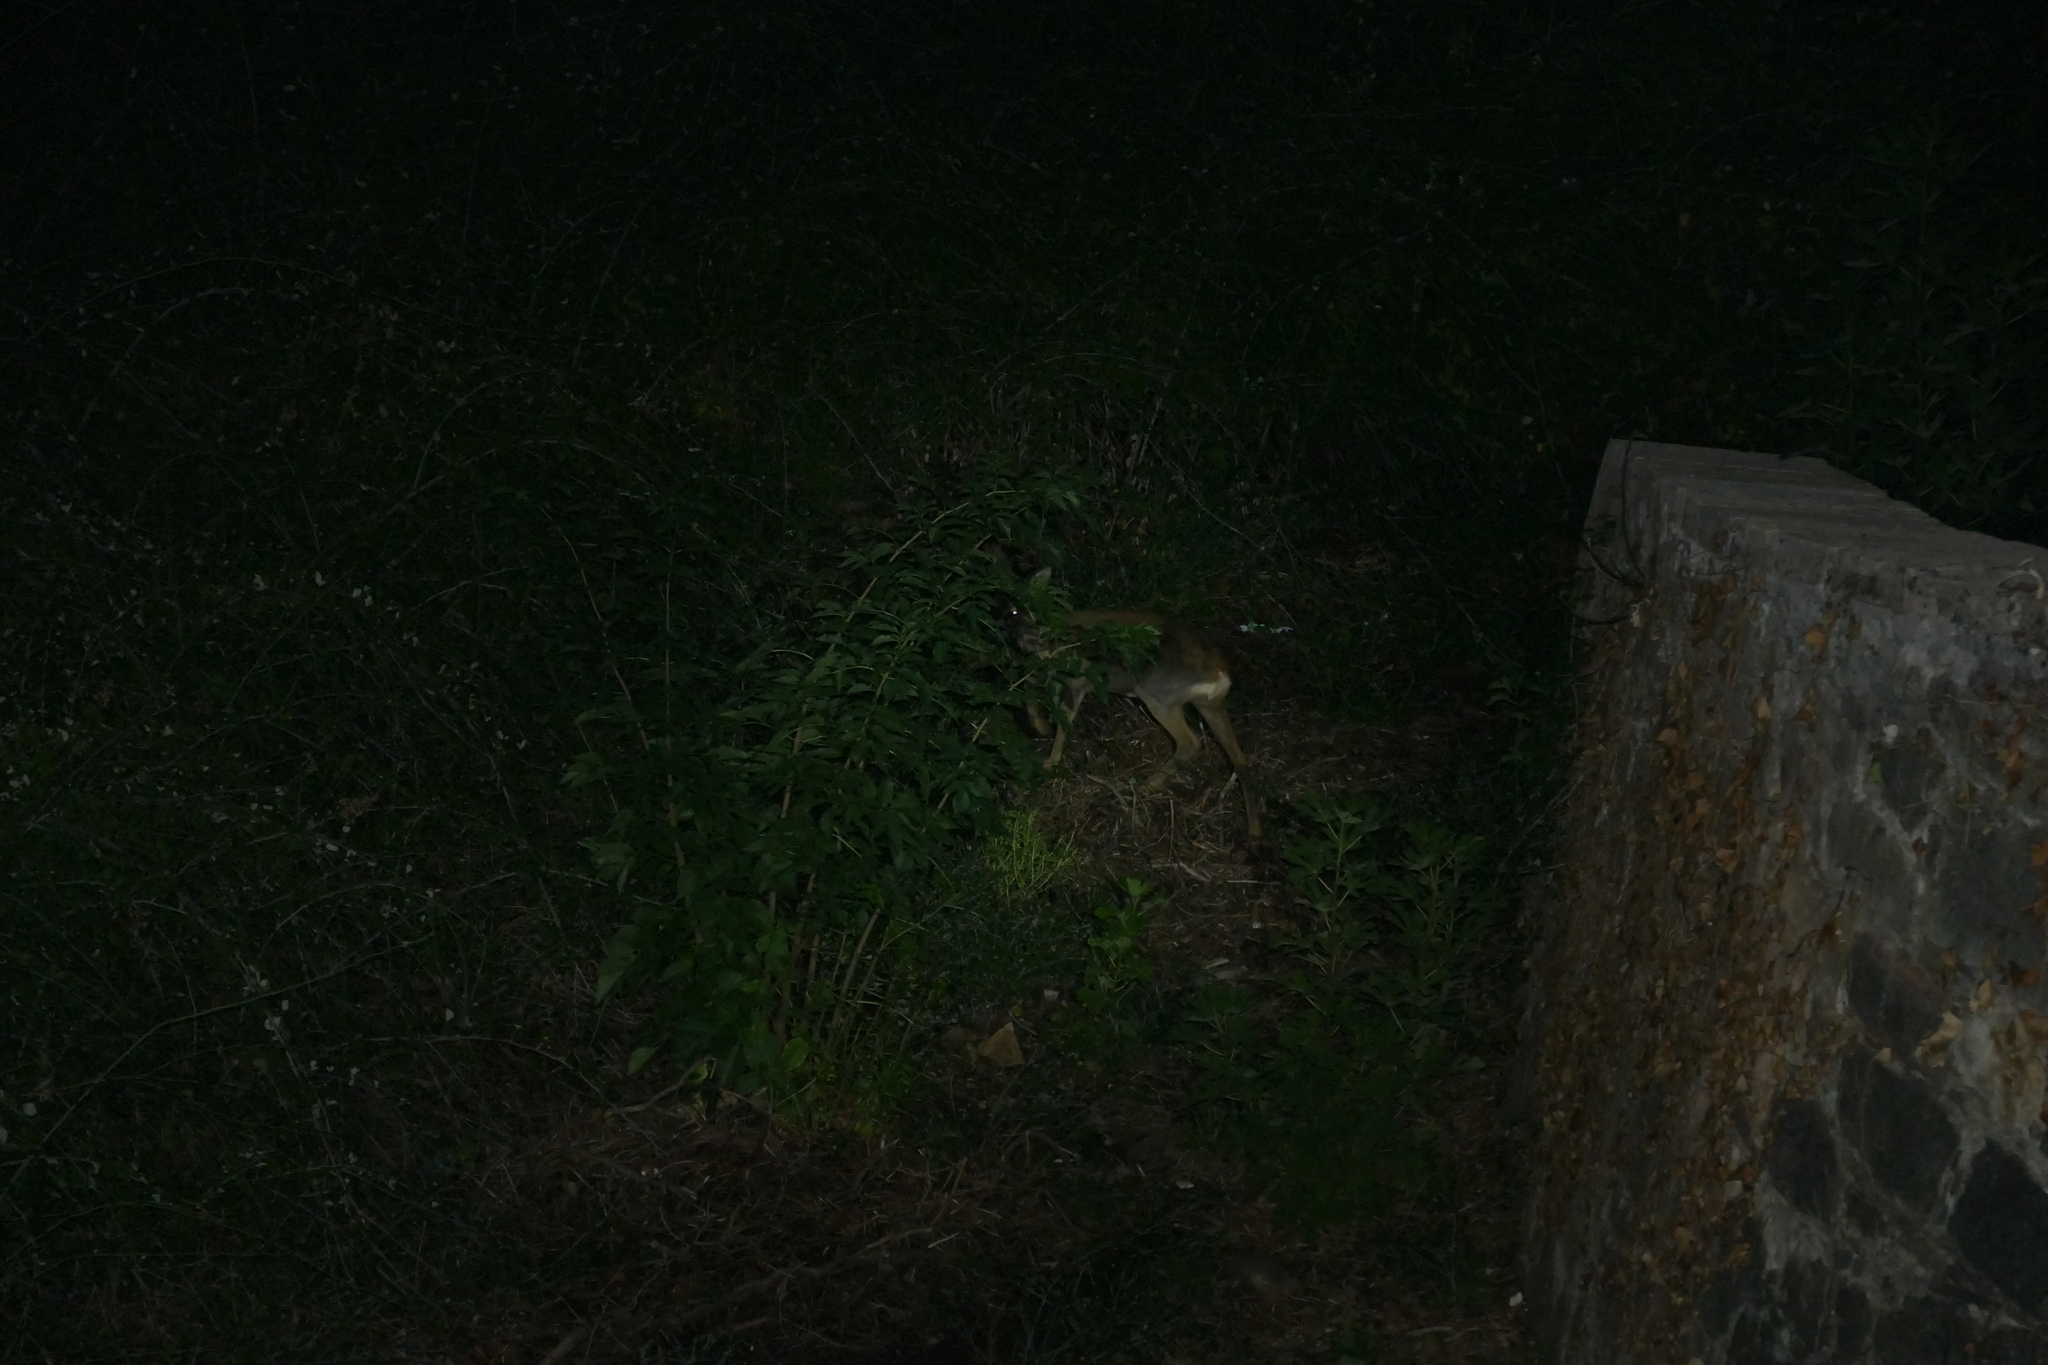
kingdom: Animalia
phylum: Chordata
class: Mammalia
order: Artiodactyla
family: Cervidae
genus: Capreolus
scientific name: Capreolus capreolus
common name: Western roe deer
